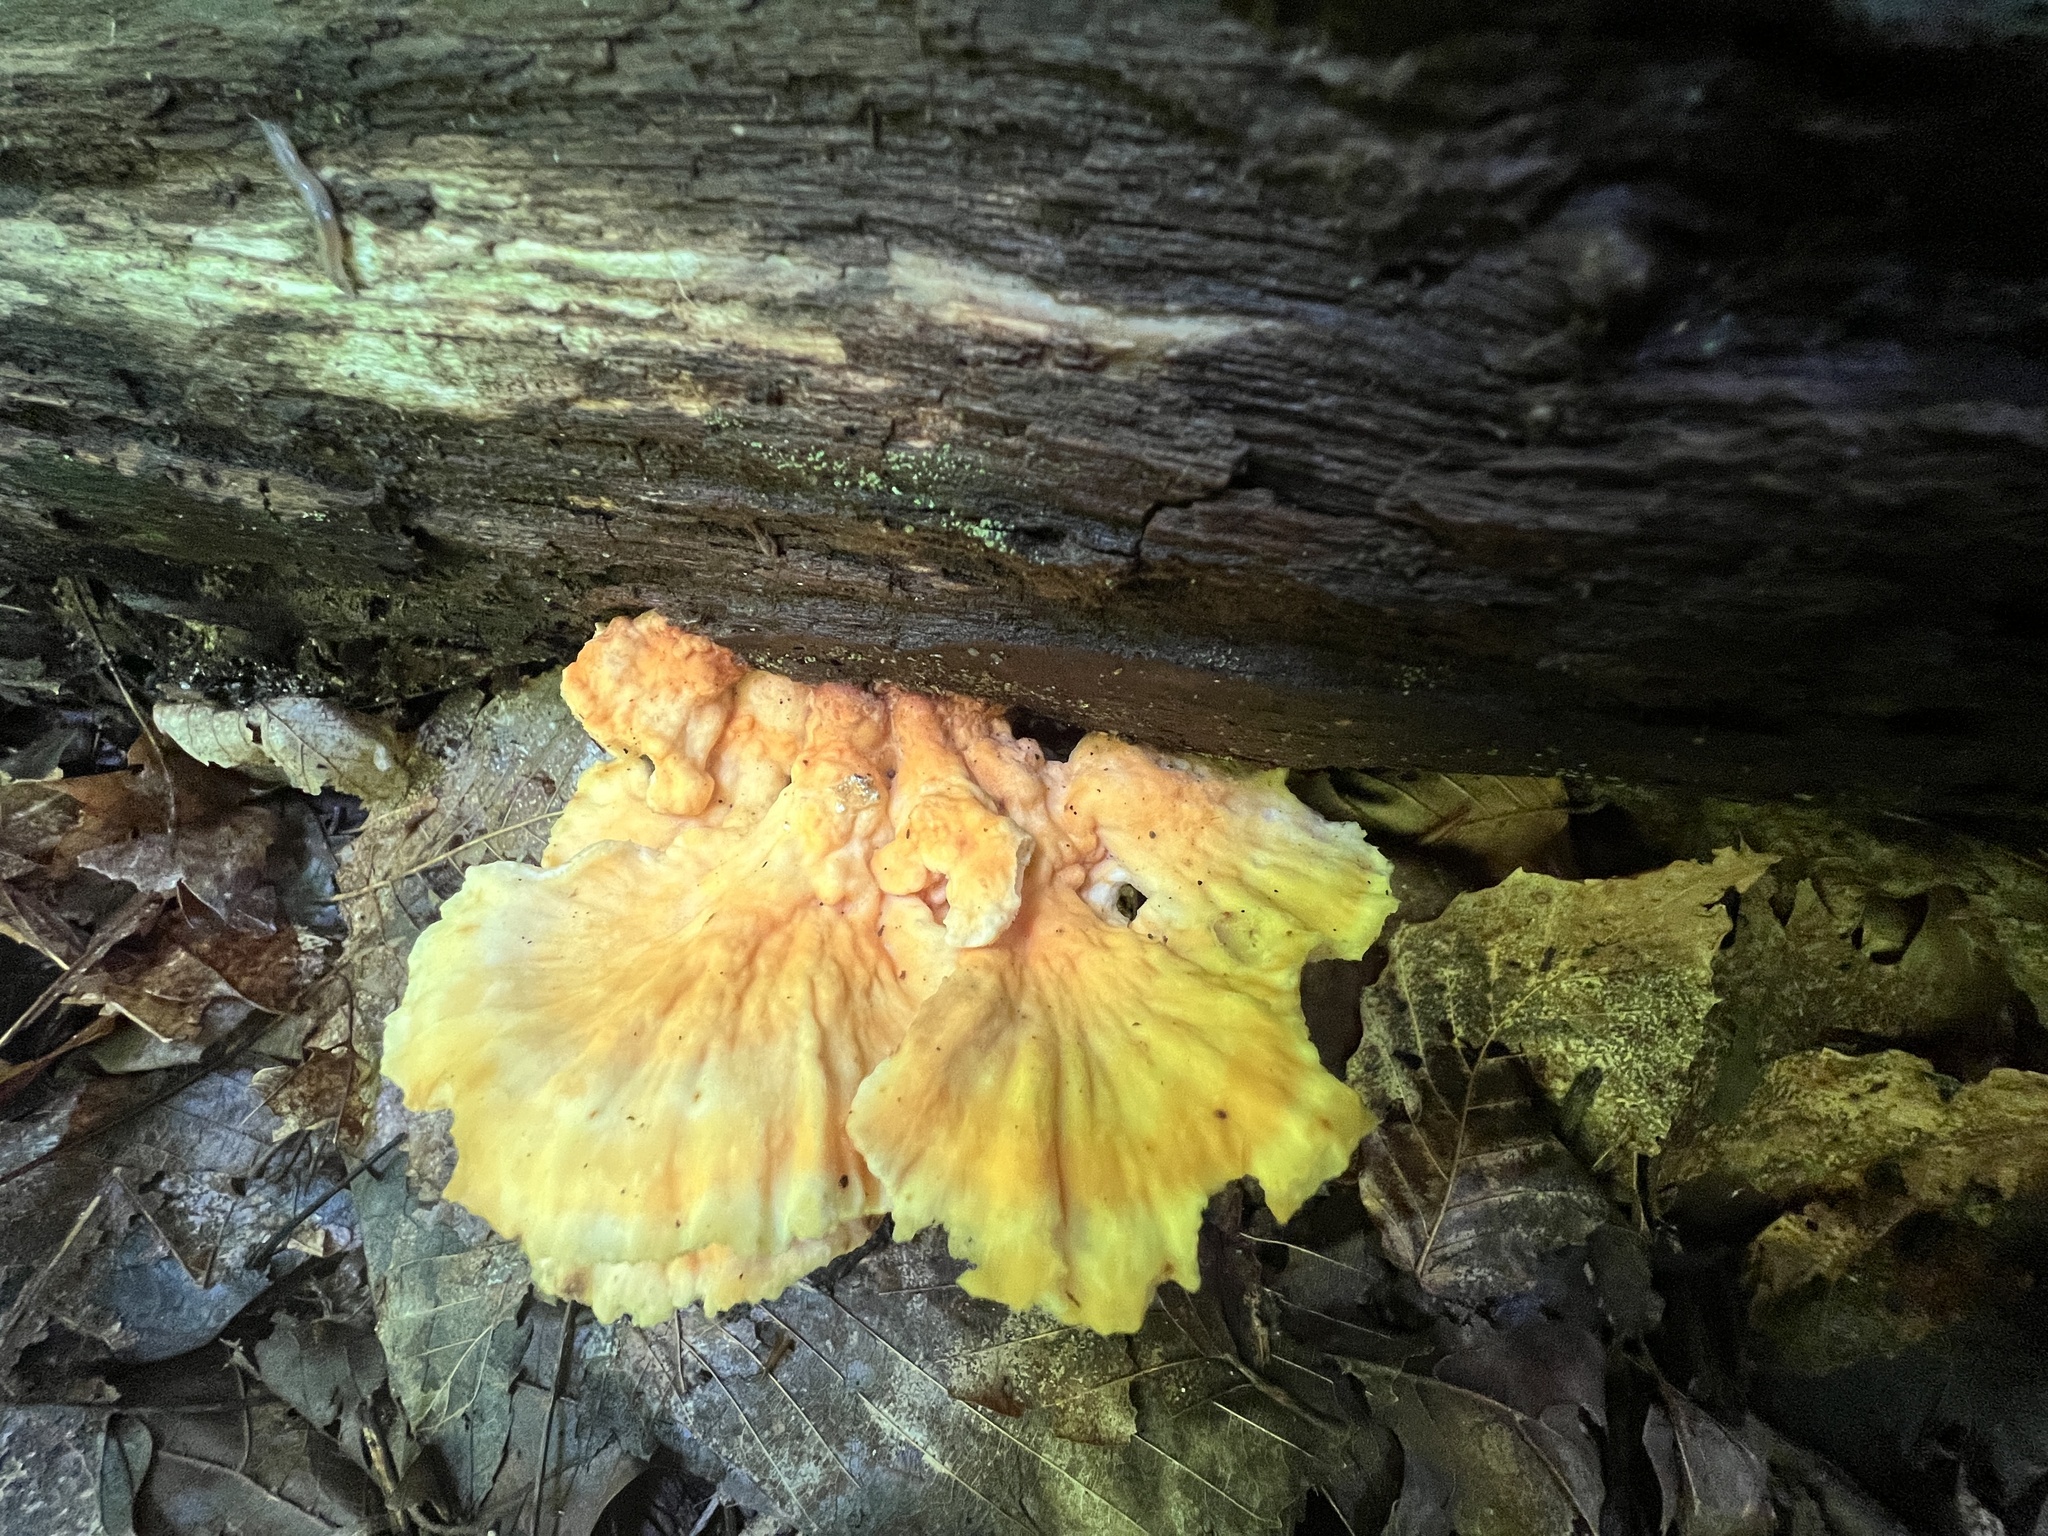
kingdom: Fungi
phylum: Basidiomycota
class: Agaricomycetes
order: Polyporales
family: Laetiporaceae
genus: Laetiporus
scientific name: Laetiporus sulphureus
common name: Chicken of the woods
